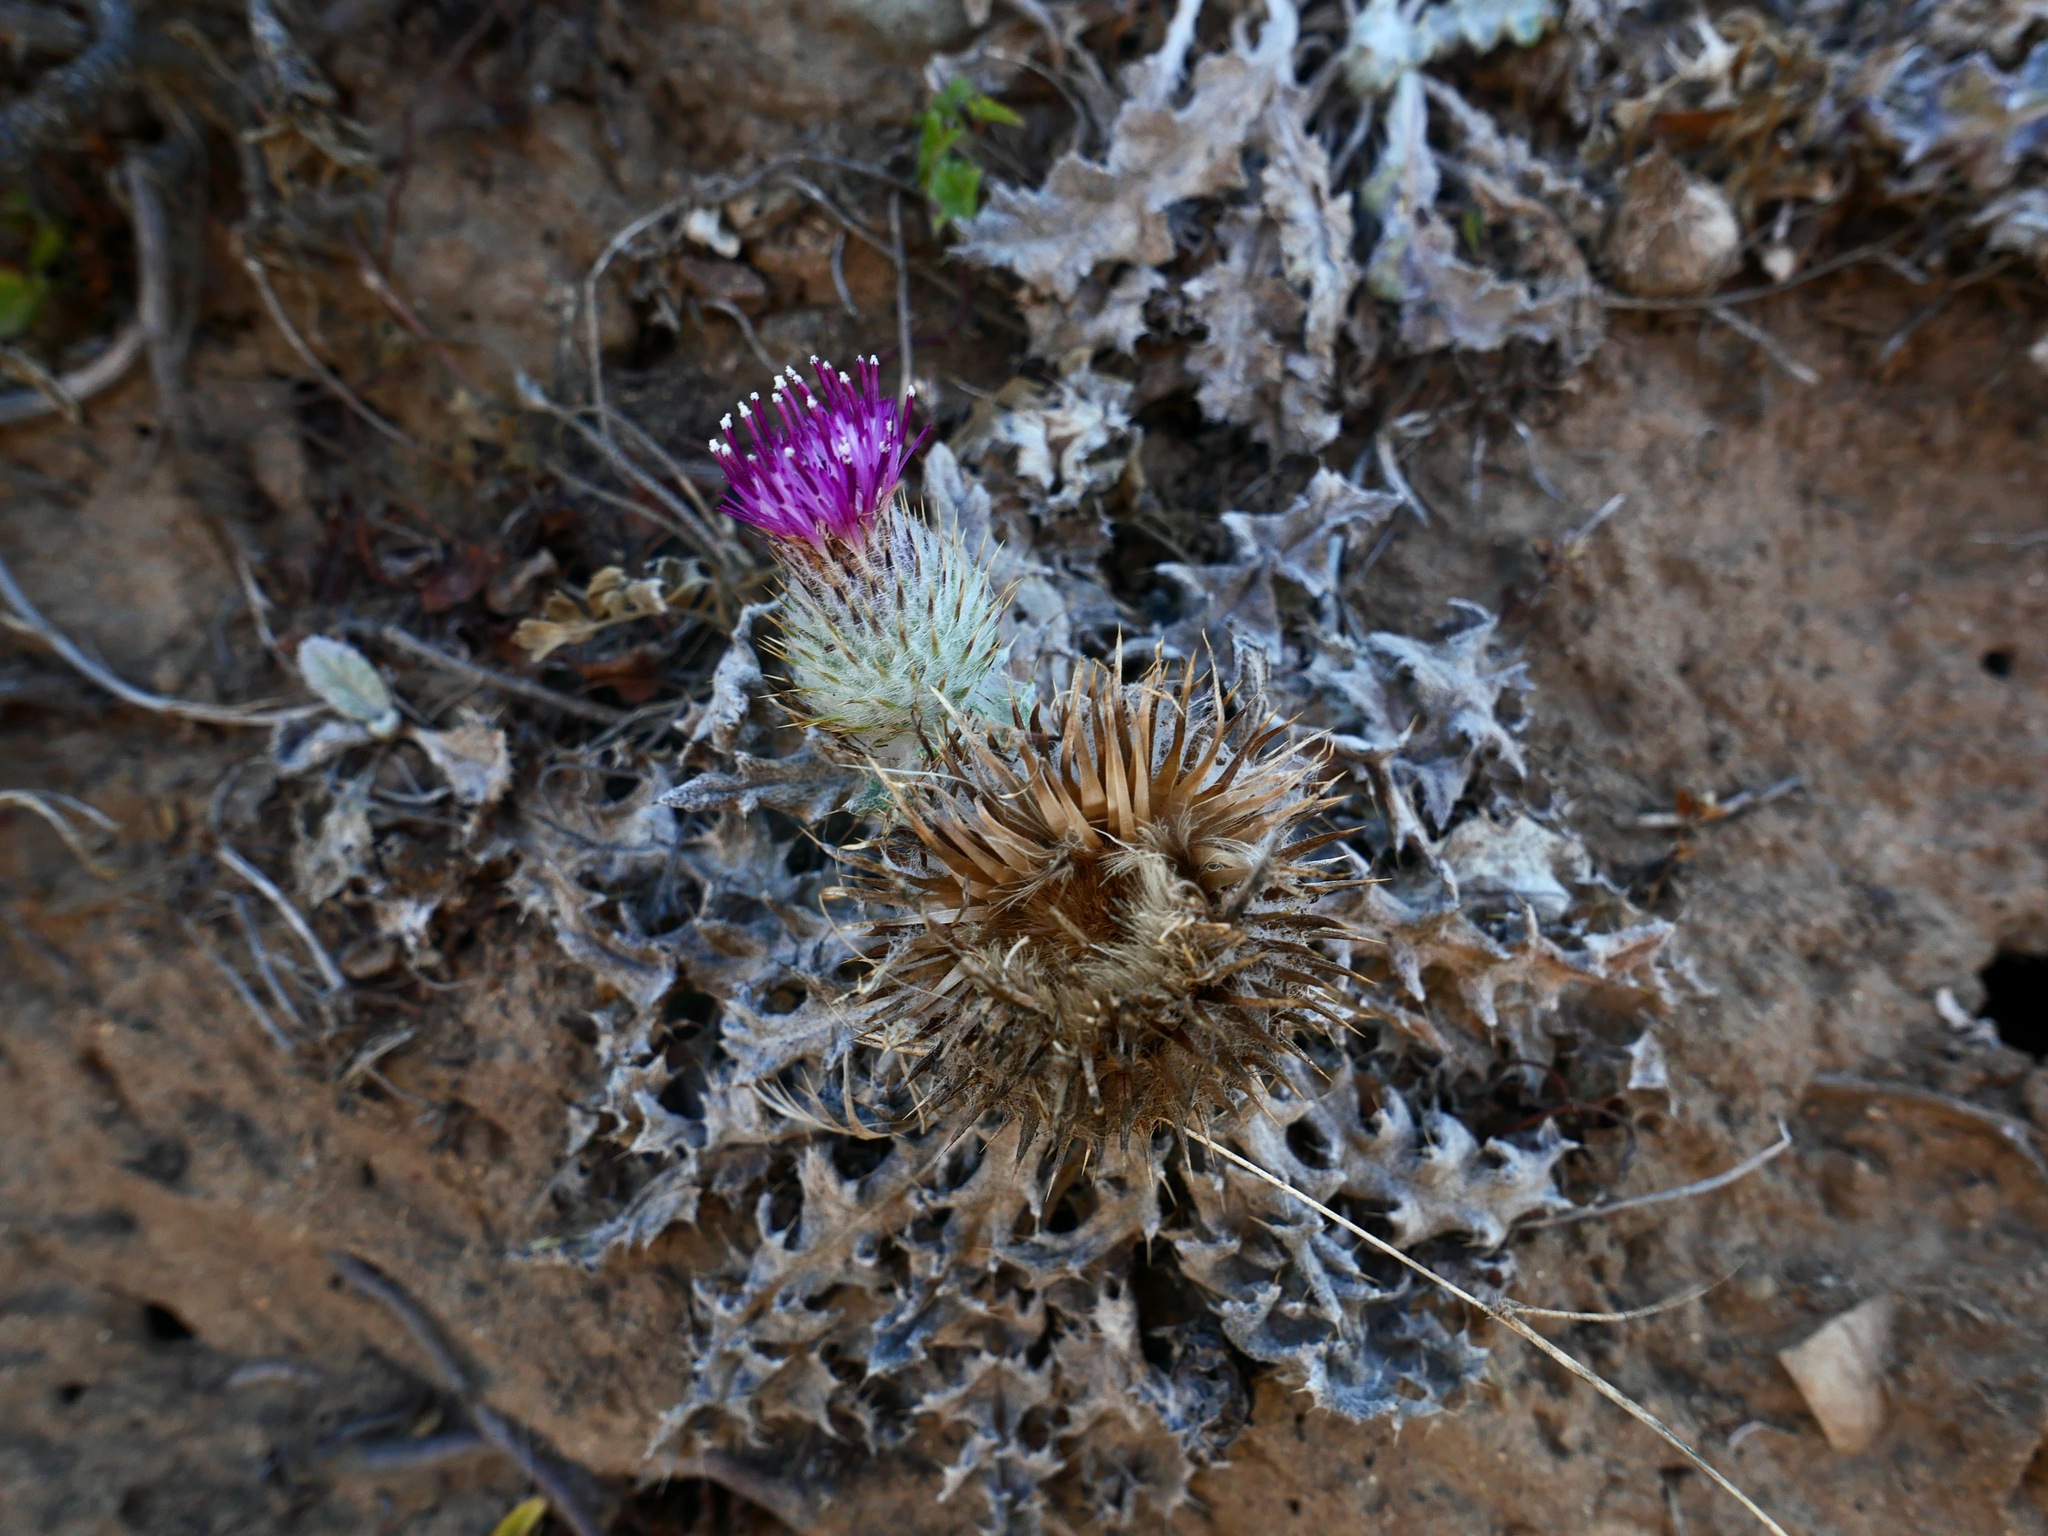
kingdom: Plantae
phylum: Tracheophyta
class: Magnoliopsida
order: Asterales
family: Asteraceae
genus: Cirsium
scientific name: Cirsium occidentale
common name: Western thistle
